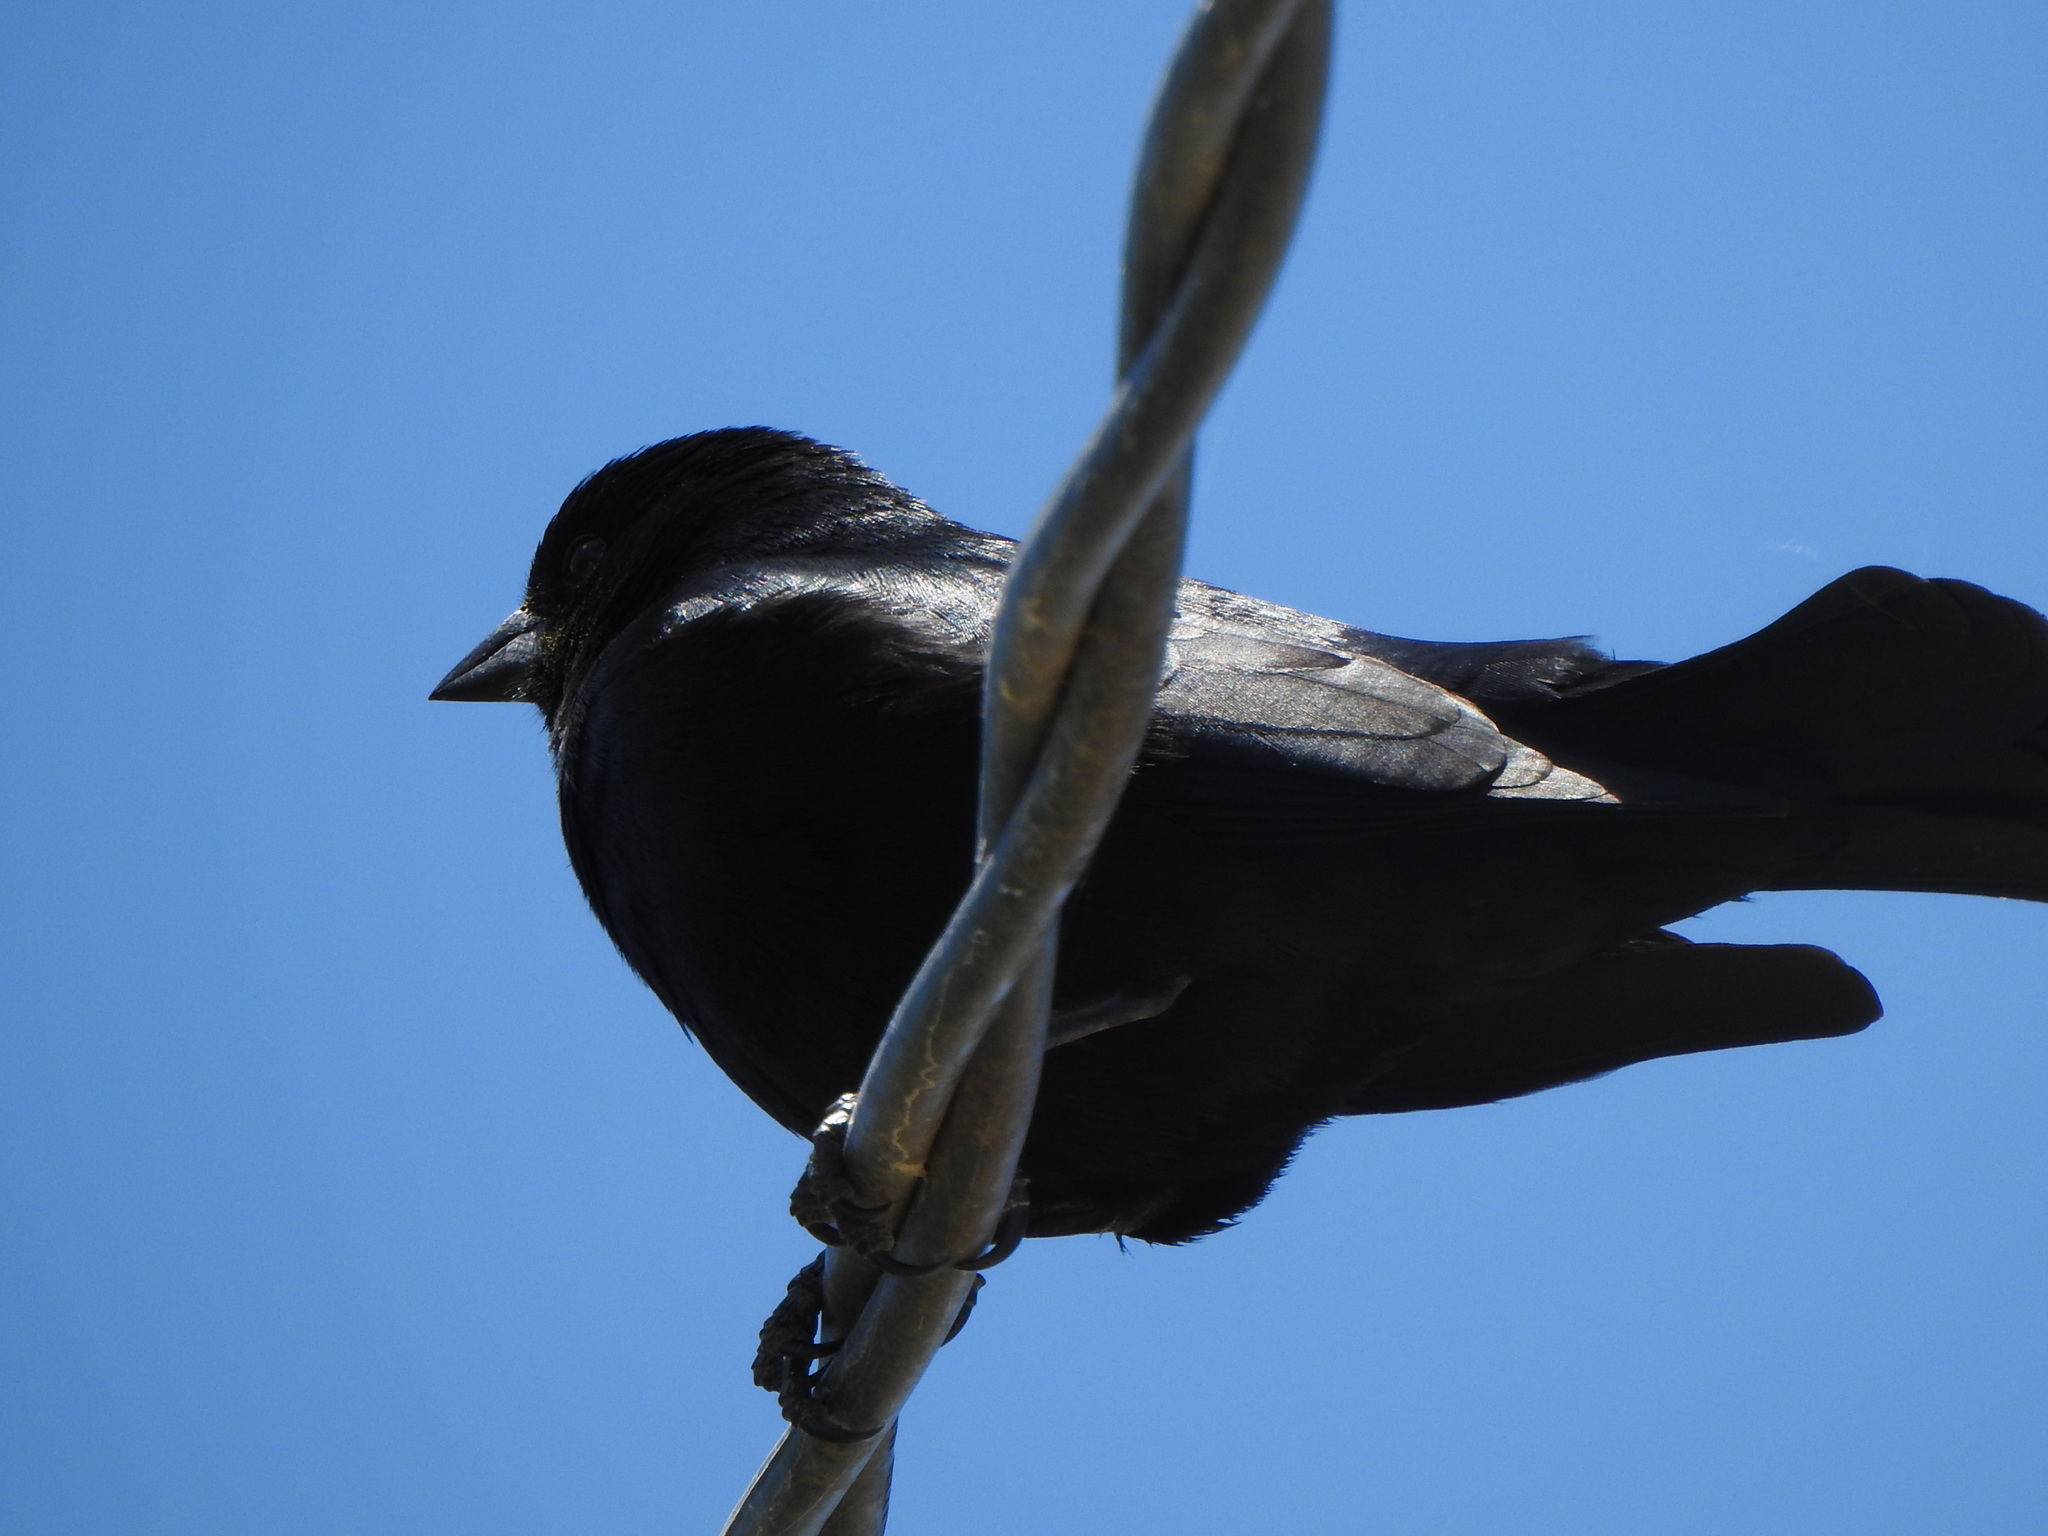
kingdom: Animalia
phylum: Chordata
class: Aves
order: Passeriformes
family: Icteridae
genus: Molothrus
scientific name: Molothrus rufoaxillaris
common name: Screaming cowbird
